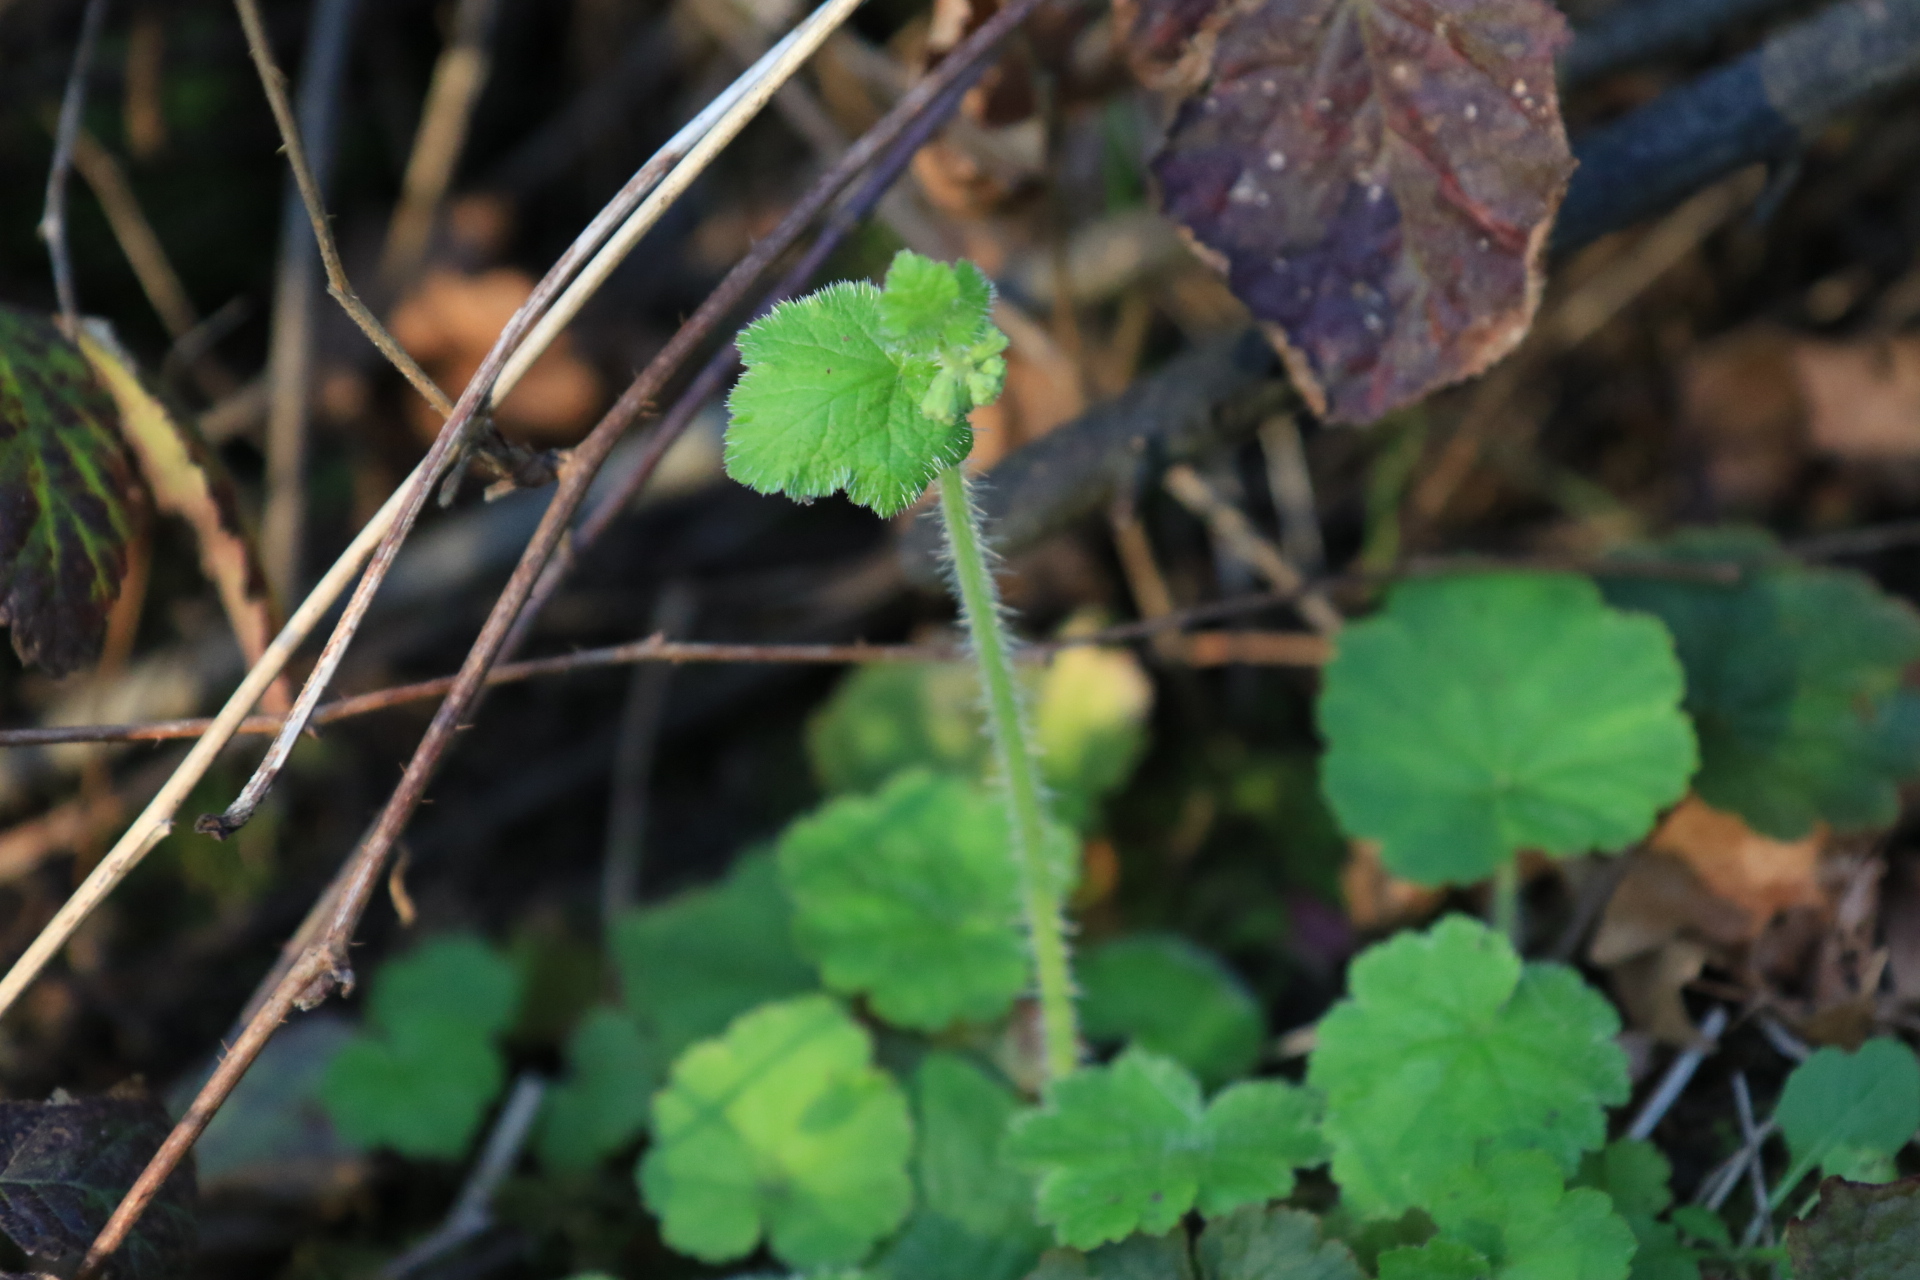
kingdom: Plantae
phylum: Tracheophyta
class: Magnoliopsida
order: Saxifragales
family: Saxifragaceae
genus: Tellima
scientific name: Tellima grandiflora
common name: Fringecups
